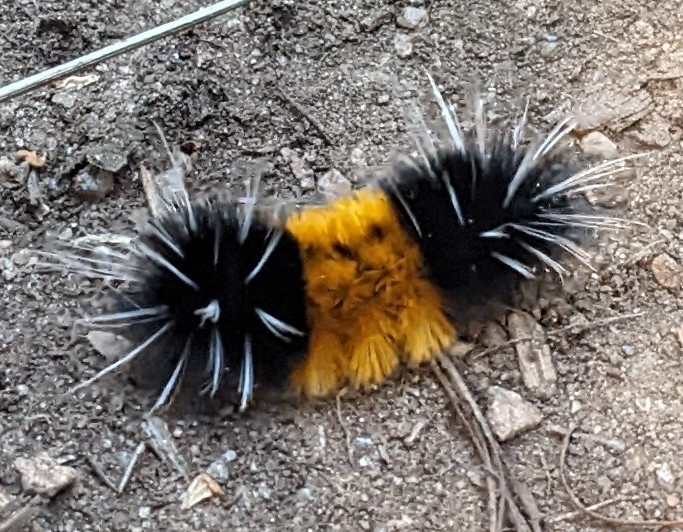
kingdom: Animalia
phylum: Arthropoda
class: Insecta
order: Lepidoptera
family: Erebidae
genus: Lophocampa
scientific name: Lophocampa maculata
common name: Spotted tussock moth
